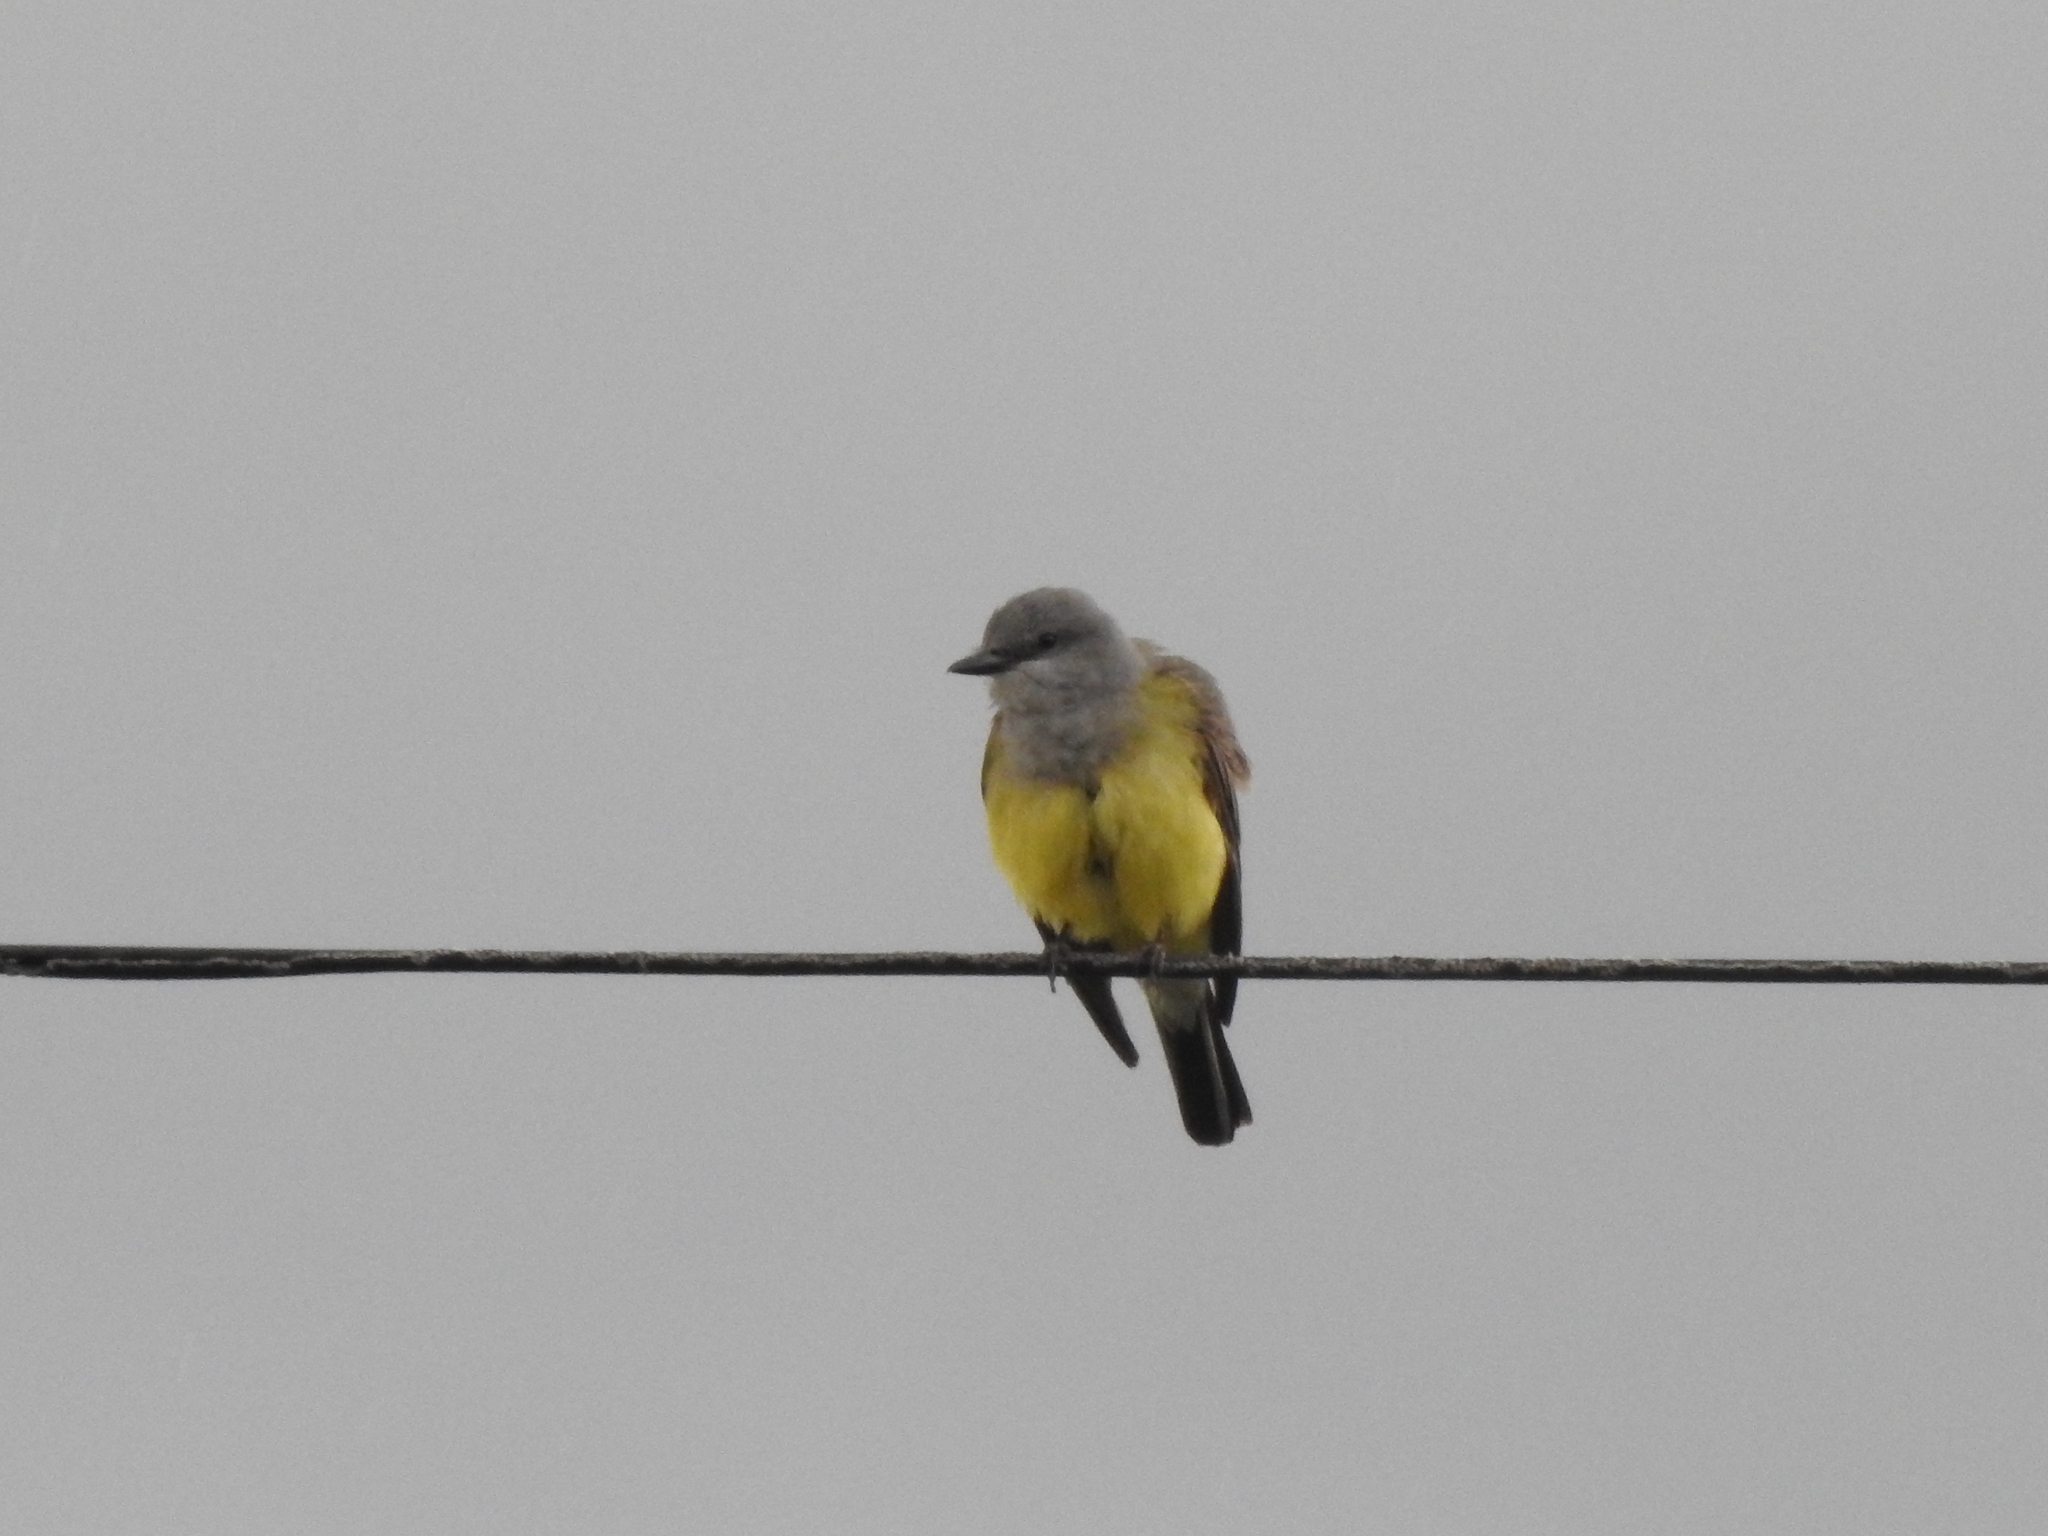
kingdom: Animalia
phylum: Chordata
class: Aves
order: Passeriformes
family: Tyrannidae
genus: Tyrannus
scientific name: Tyrannus vociferans
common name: Cassin's kingbird
